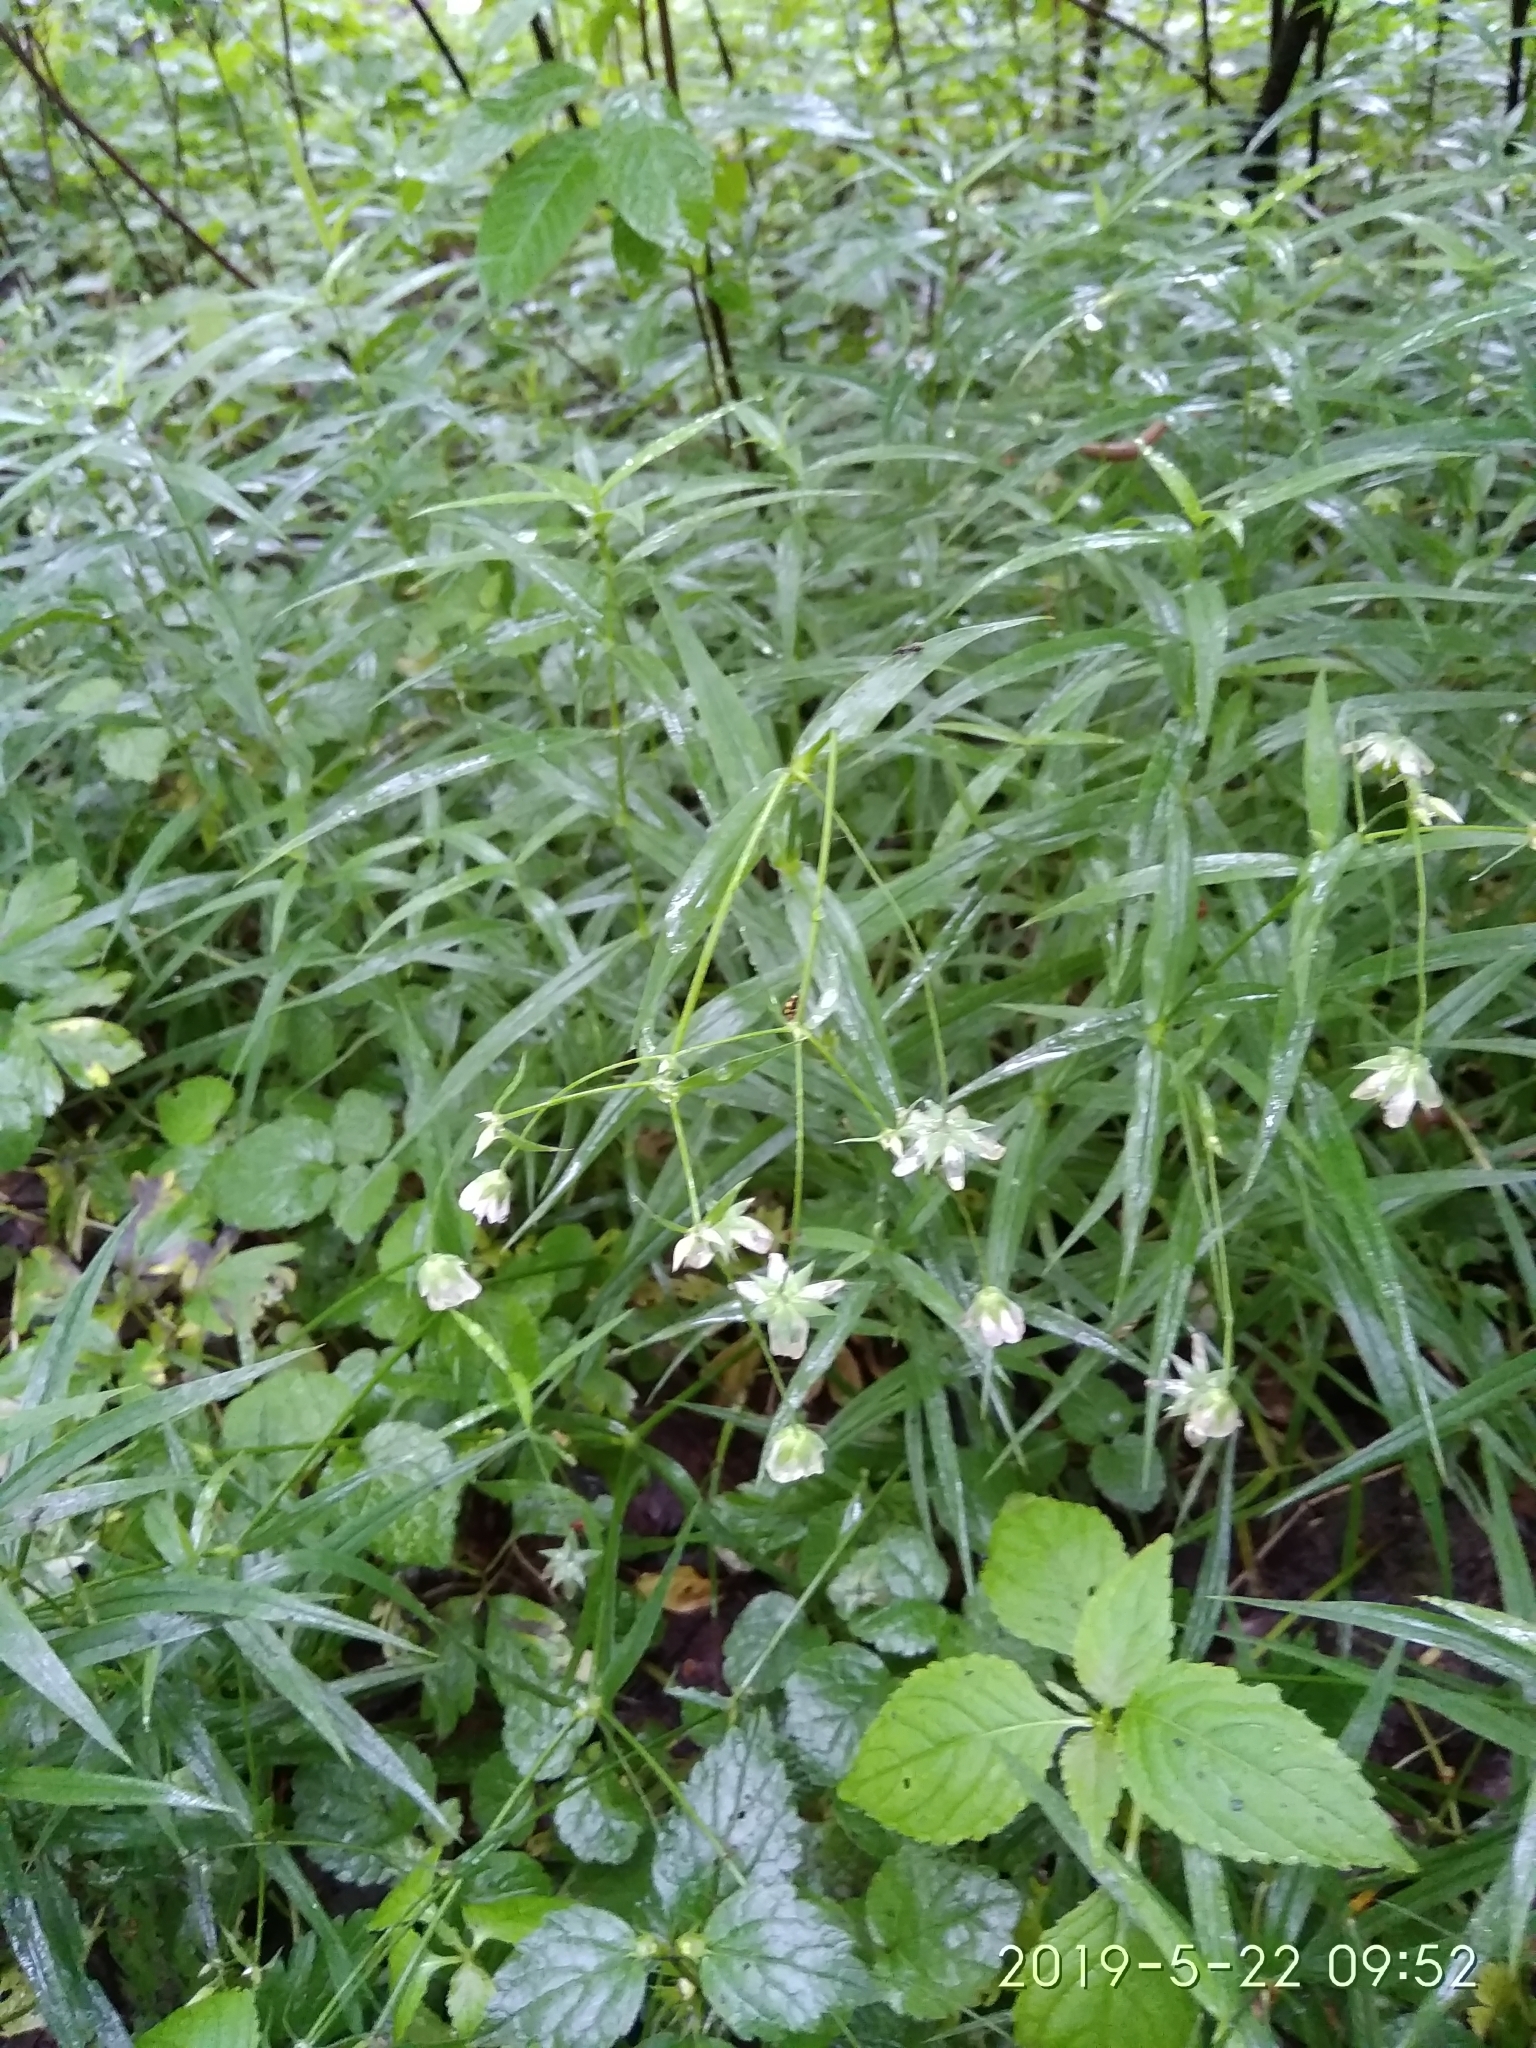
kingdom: Plantae
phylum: Tracheophyta
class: Magnoliopsida
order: Caryophyllales
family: Caryophyllaceae
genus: Rabelera
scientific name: Rabelera holostea
